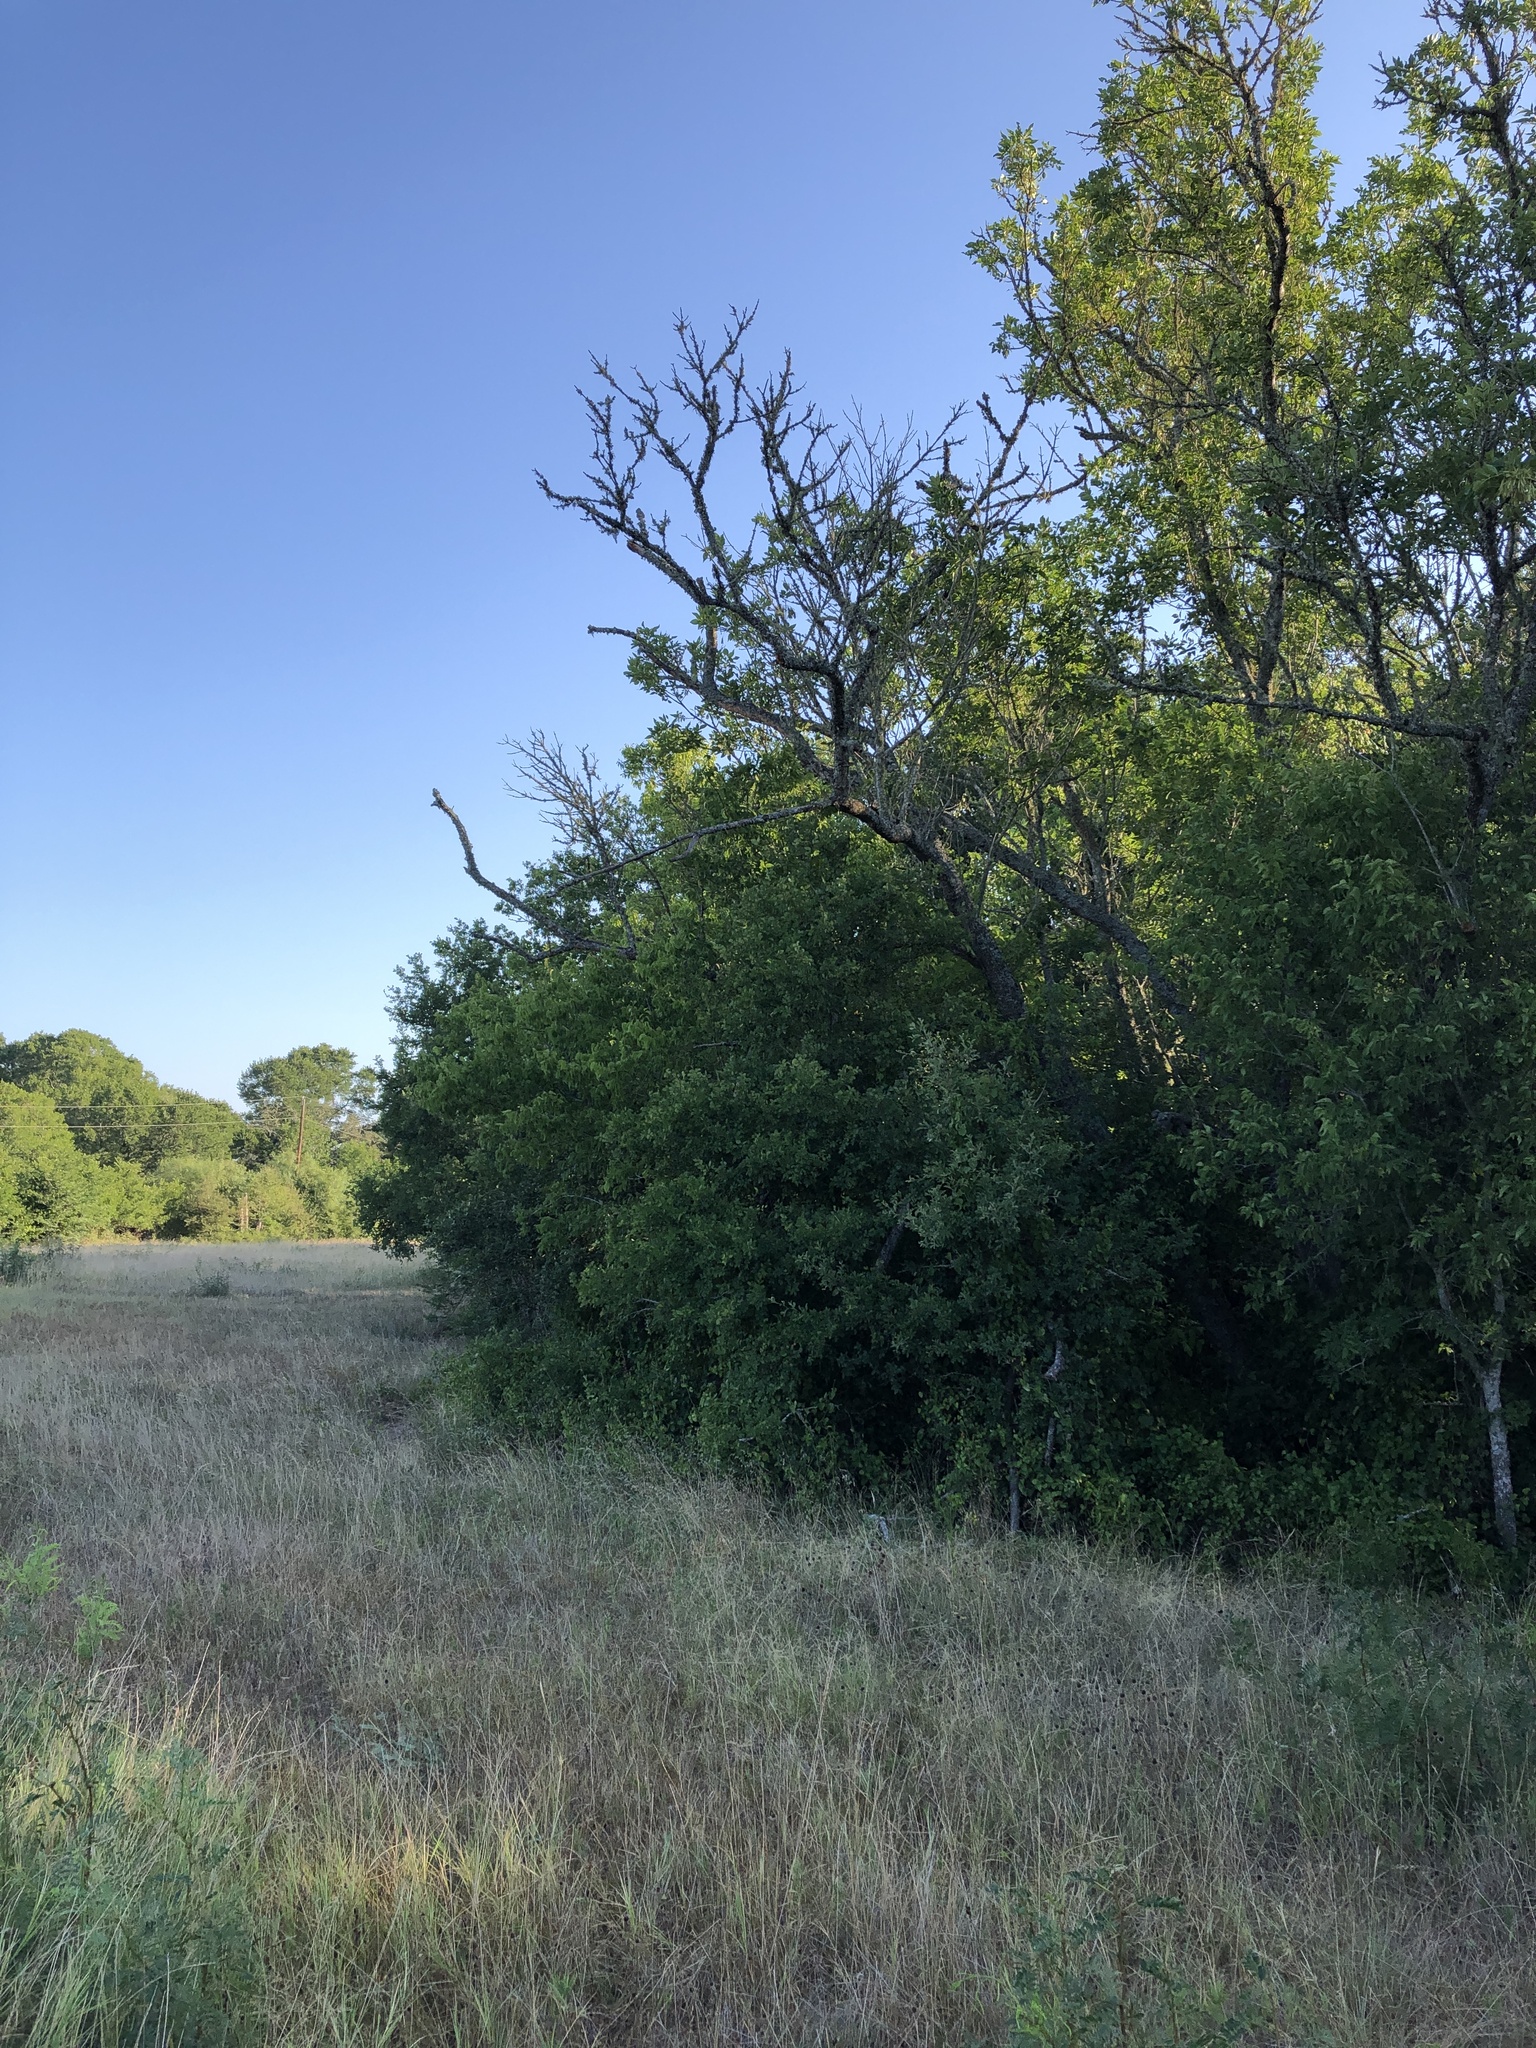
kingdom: Animalia
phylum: Chordata
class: Aves
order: Passeriformes
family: Cardinalidae
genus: Cardinalis
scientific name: Cardinalis cardinalis
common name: Northern cardinal
